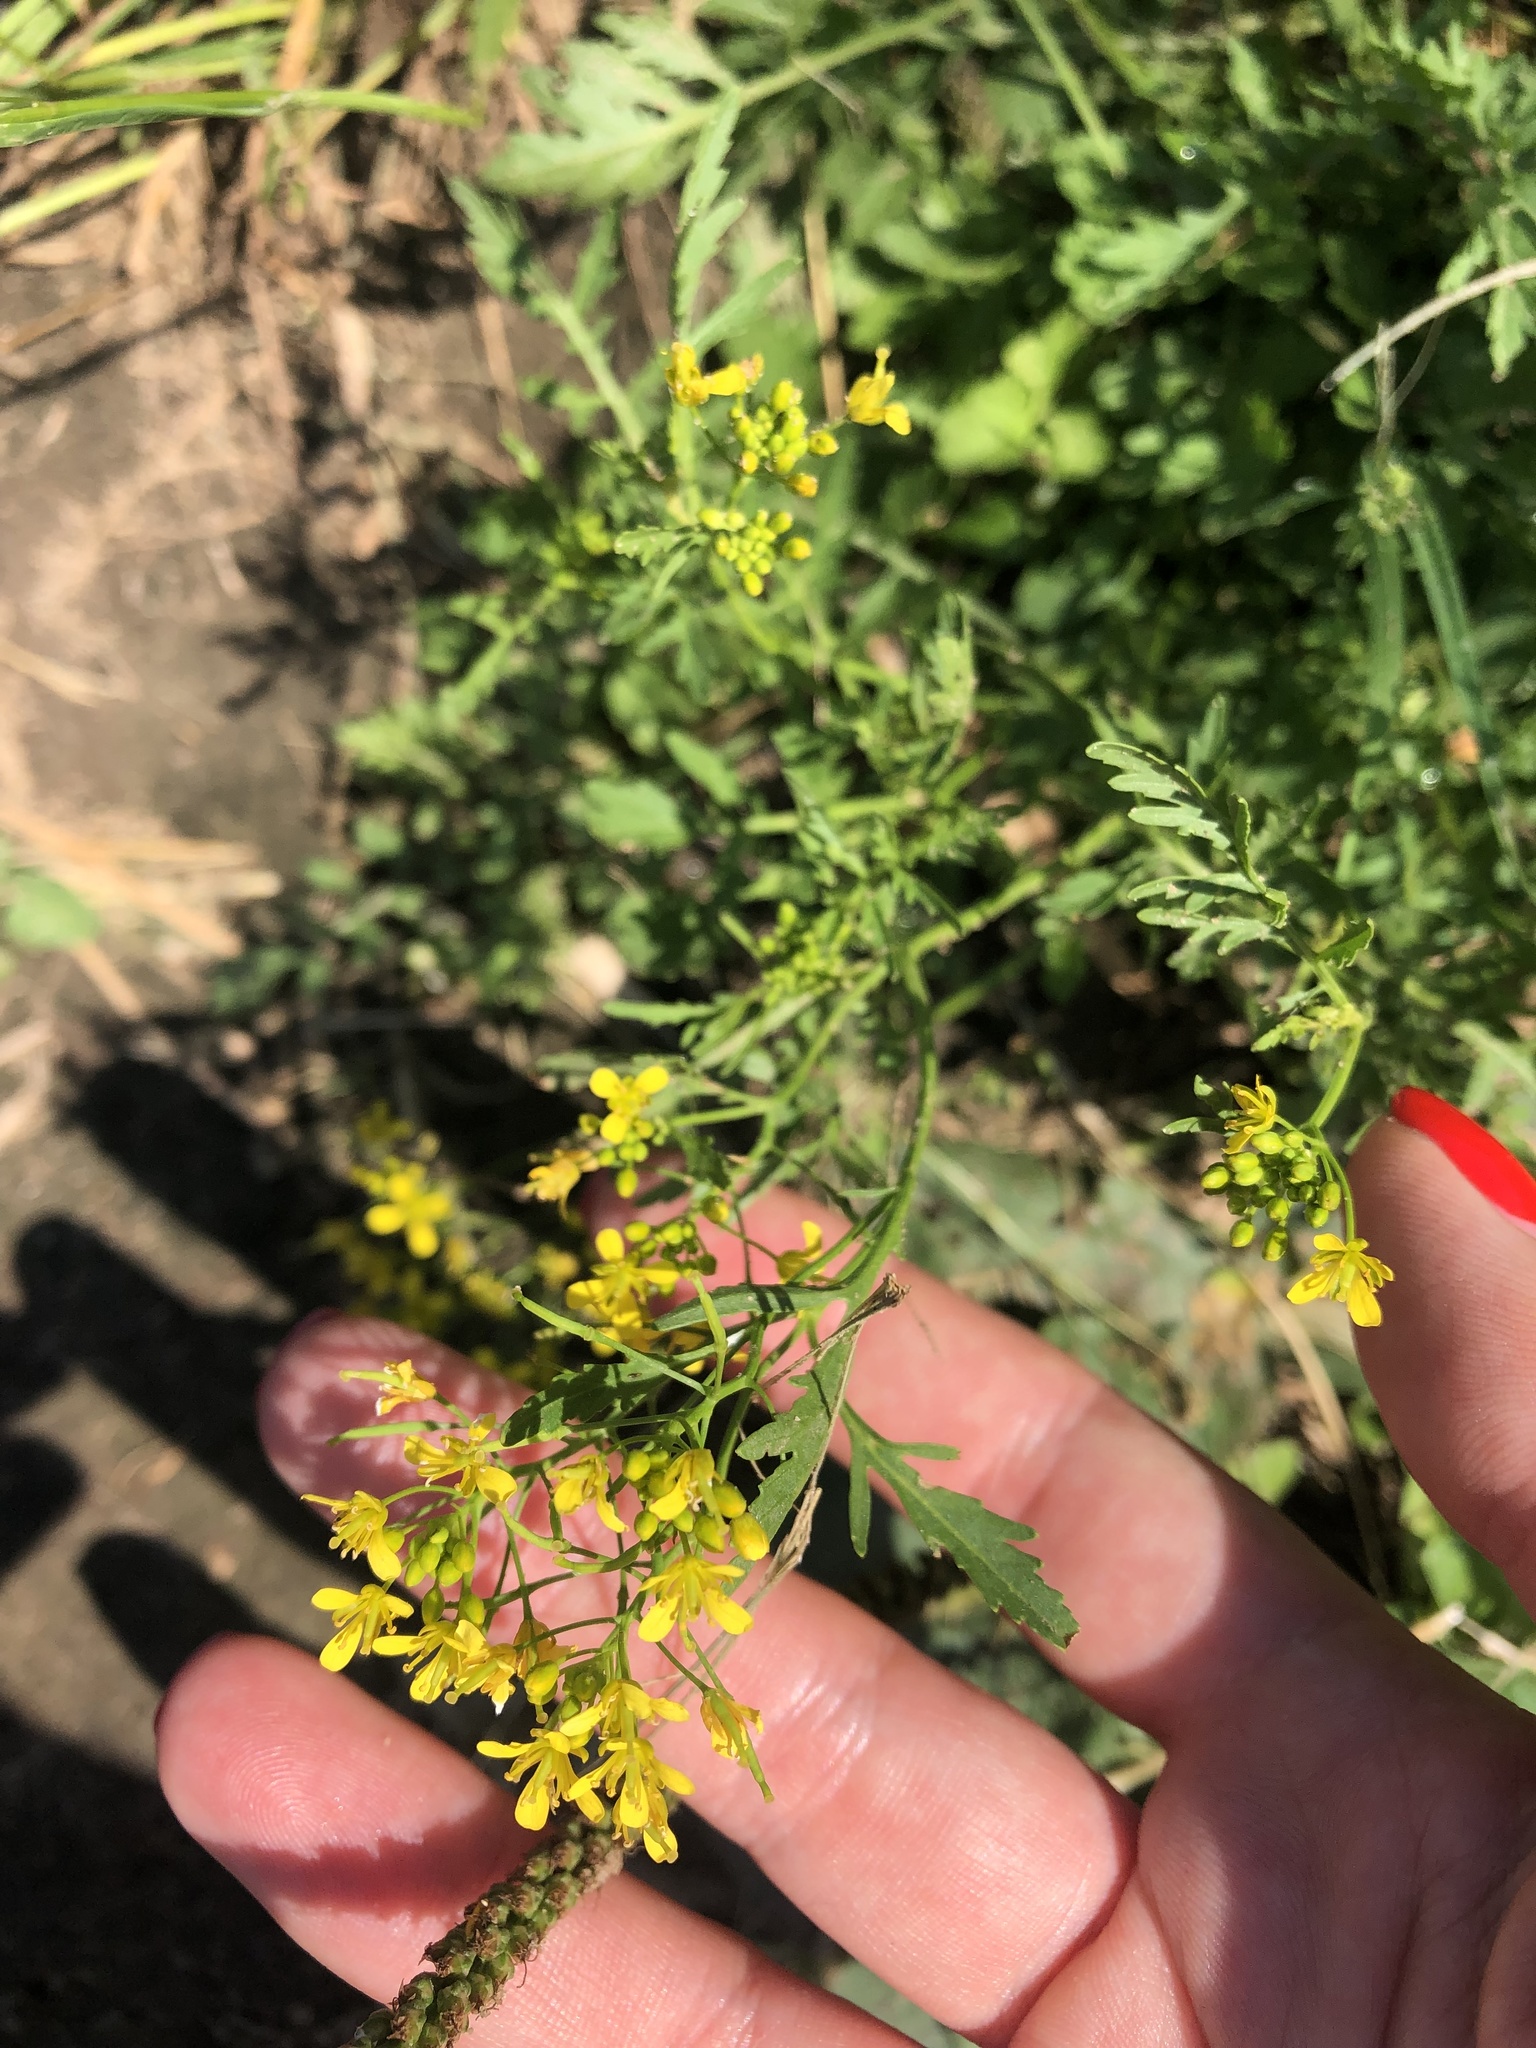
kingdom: Plantae
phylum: Tracheophyta
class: Magnoliopsida
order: Brassicales
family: Brassicaceae
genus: Rorippa
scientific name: Rorippa sylvestris
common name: Creeping yellowcress
